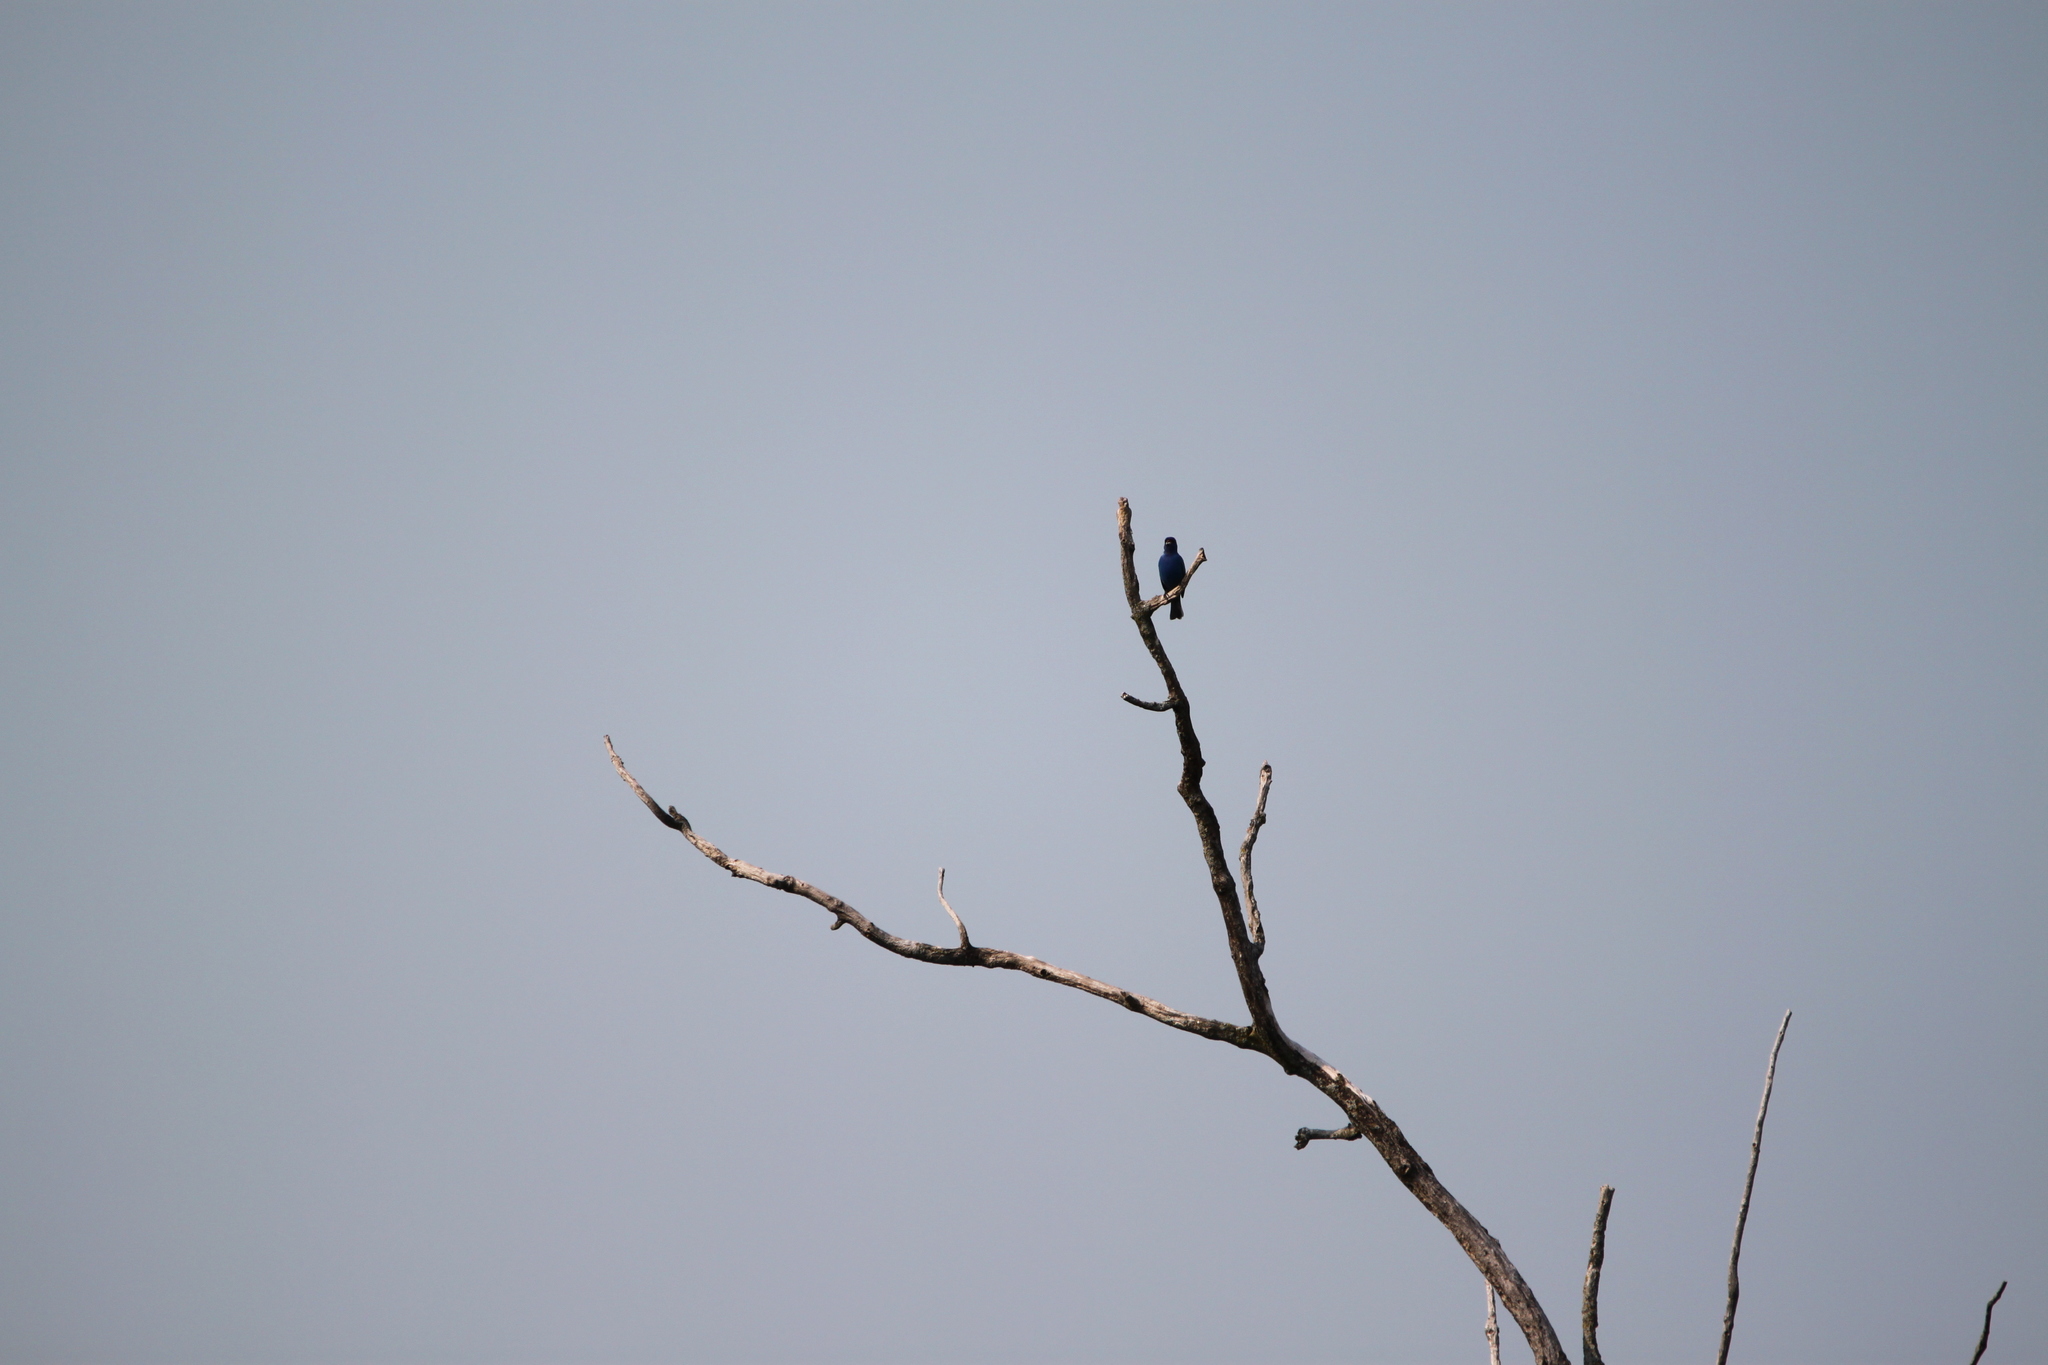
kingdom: Animalia
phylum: Chordata
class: Aves
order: Passeriformes
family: Cardinalidae
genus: Passerina
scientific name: Passerina cyanea
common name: Indigo bunting
